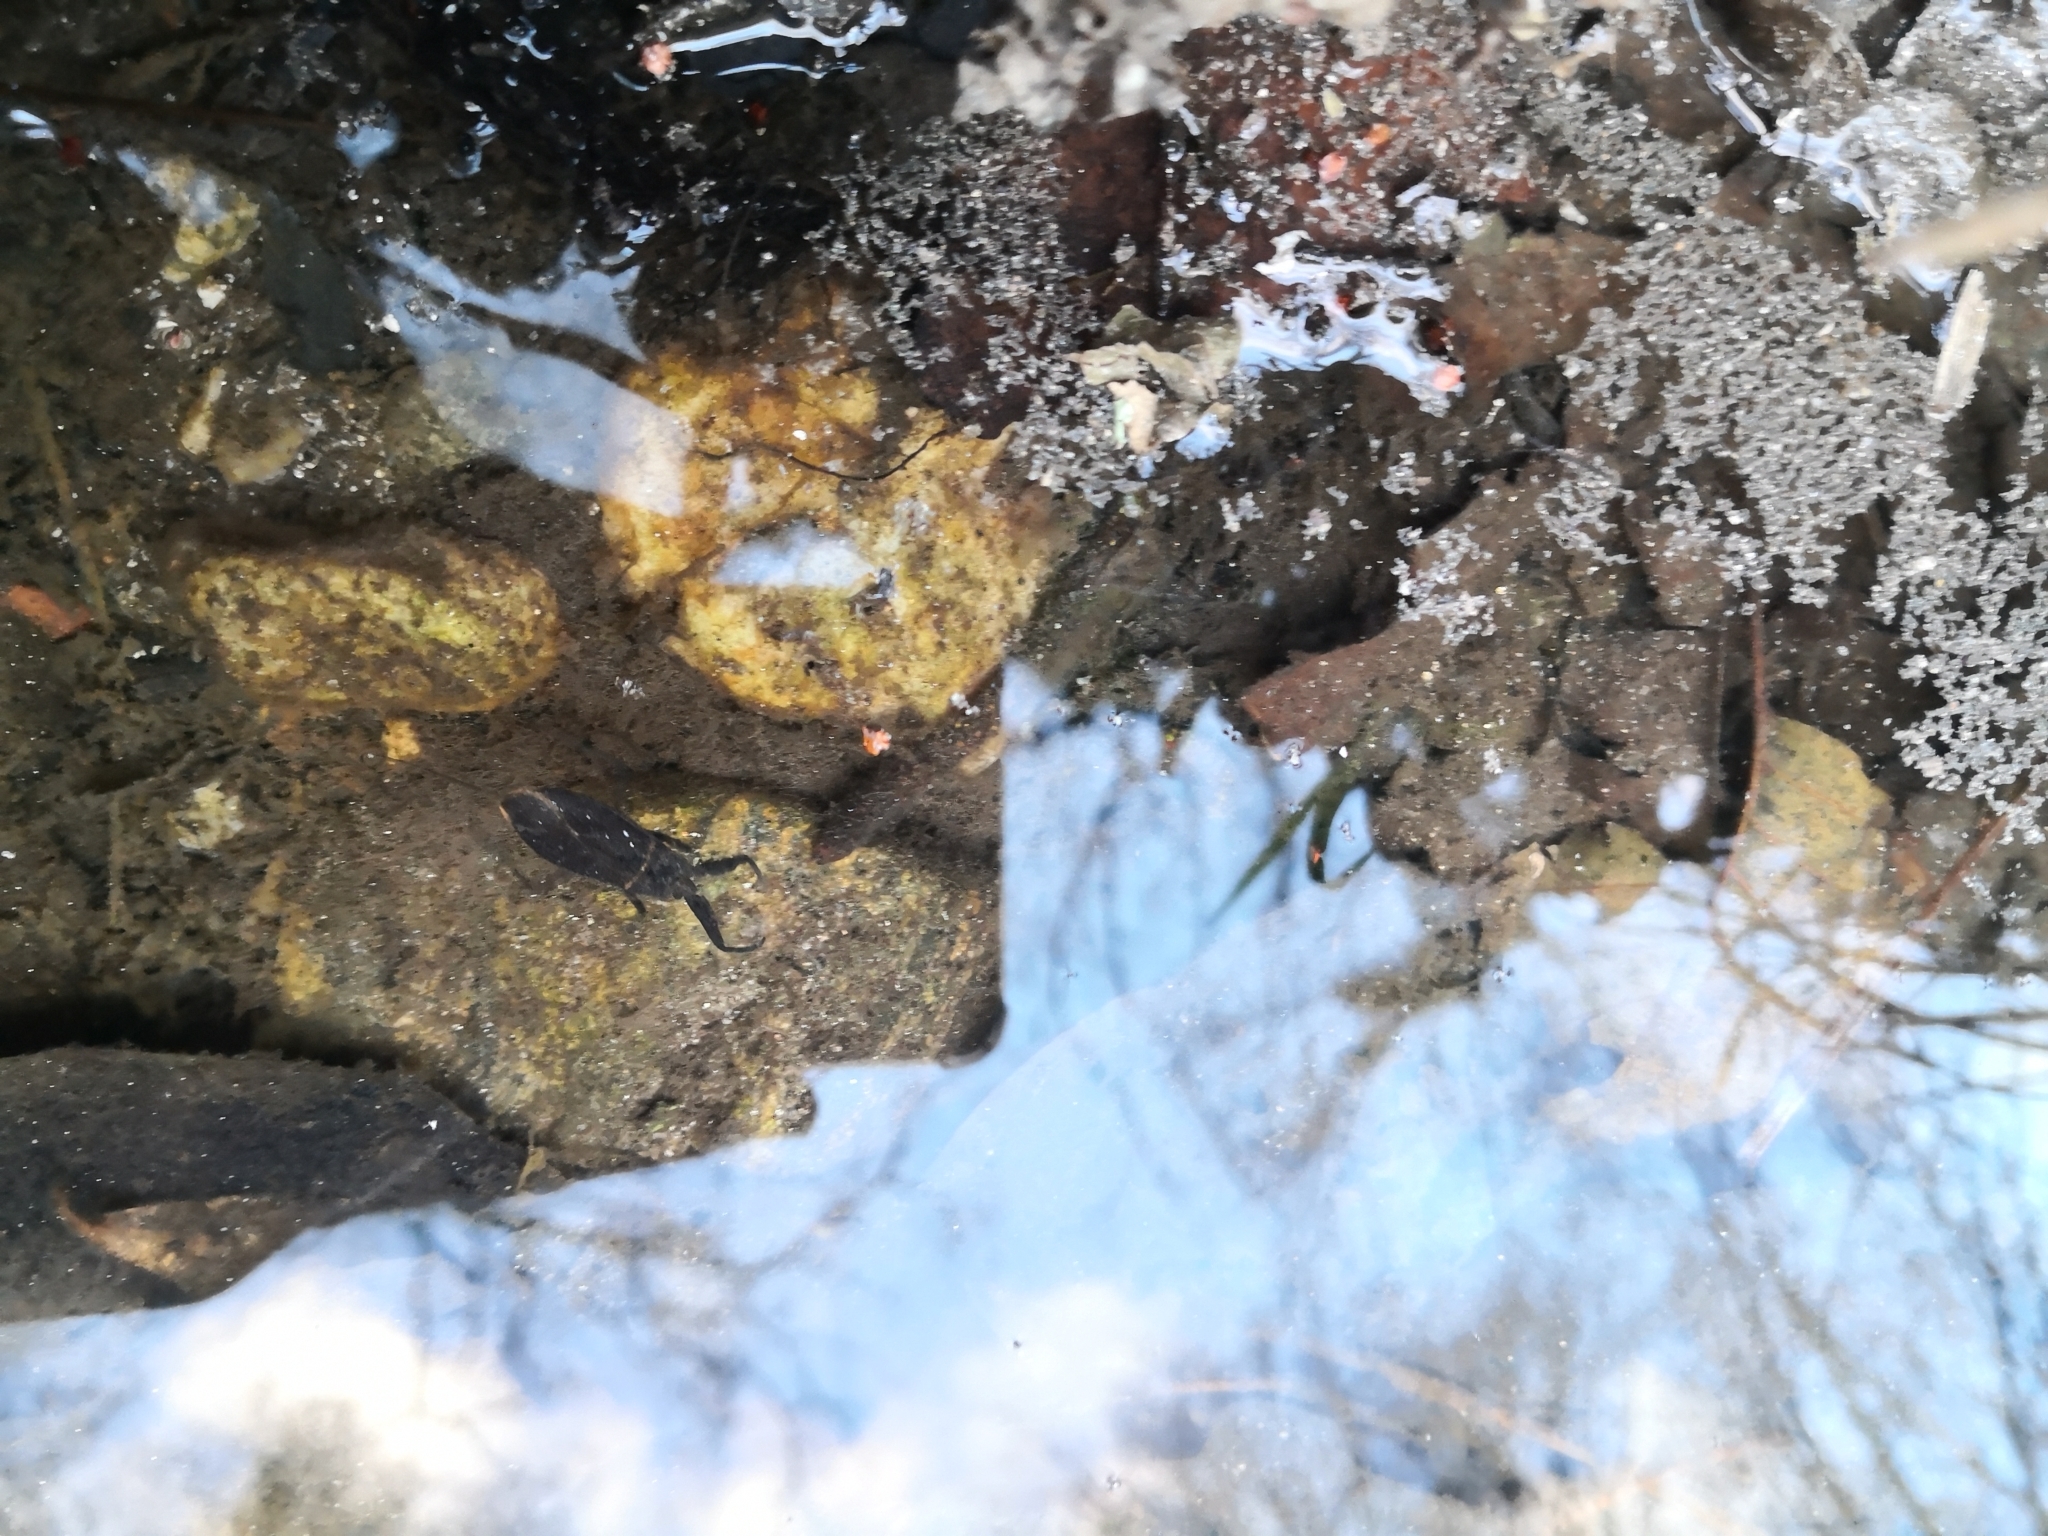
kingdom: Animalia
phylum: Arthropoda
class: Insecta
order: Hemiptera
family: Nepidae
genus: Nepa
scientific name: Nepa cinerea
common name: Water scorpion
